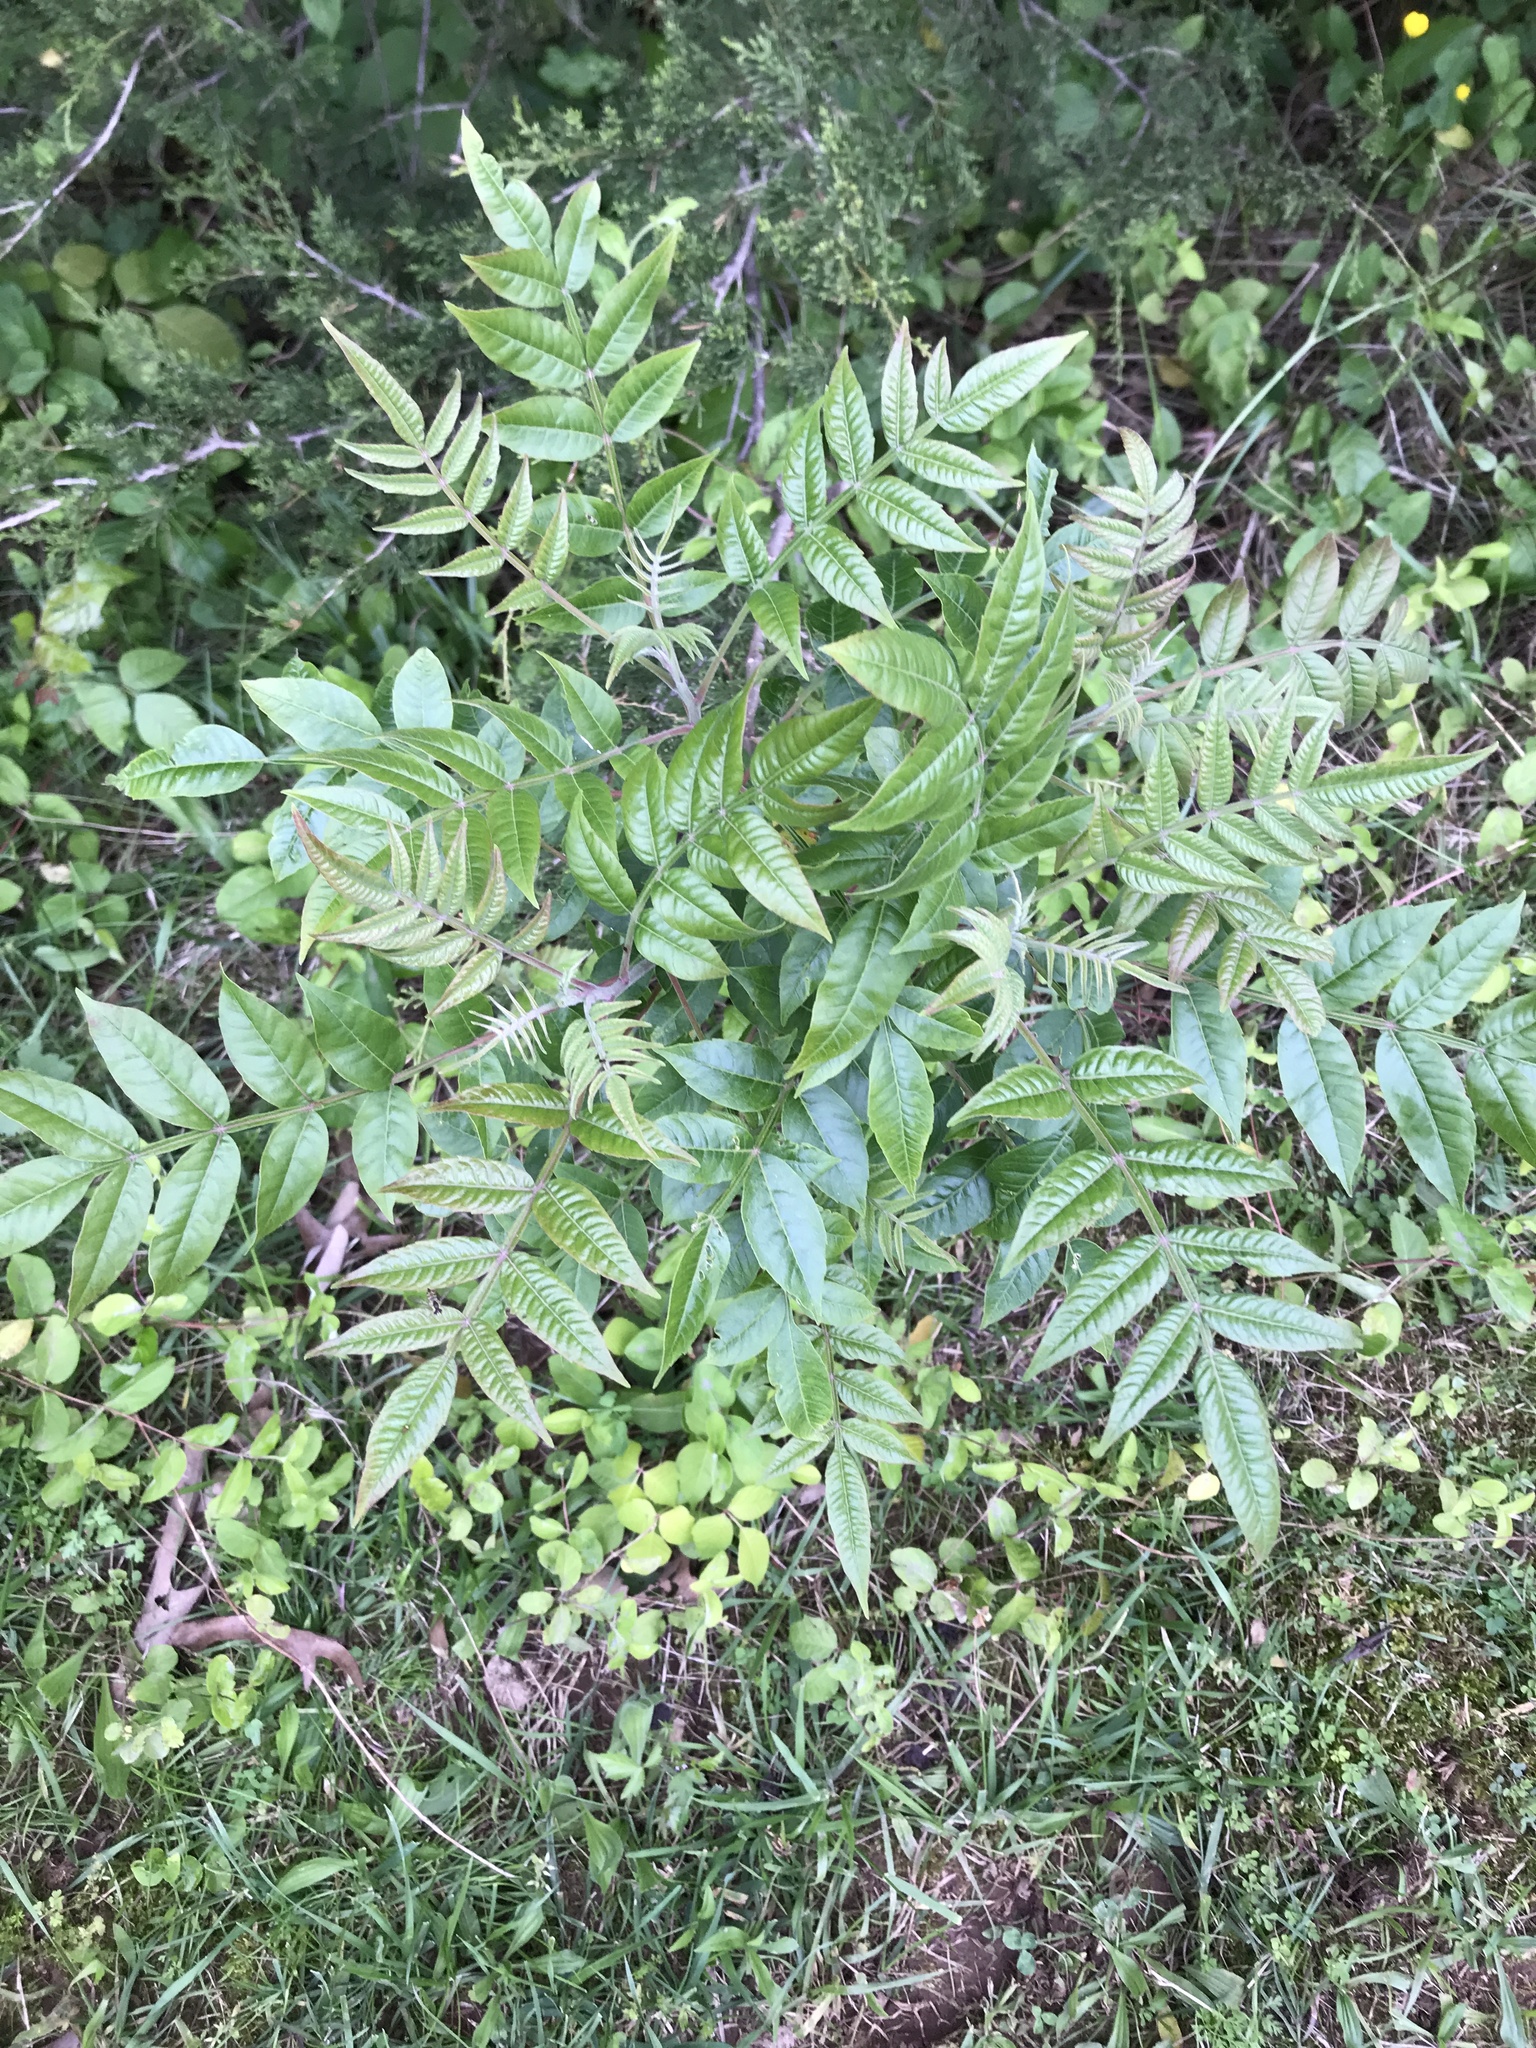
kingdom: Plantae
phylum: Tracheophyta
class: Magnoliopsida
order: Sapindales
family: Anacardiaceae
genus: Rhus
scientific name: Rhus copallina
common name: Shining sumac
